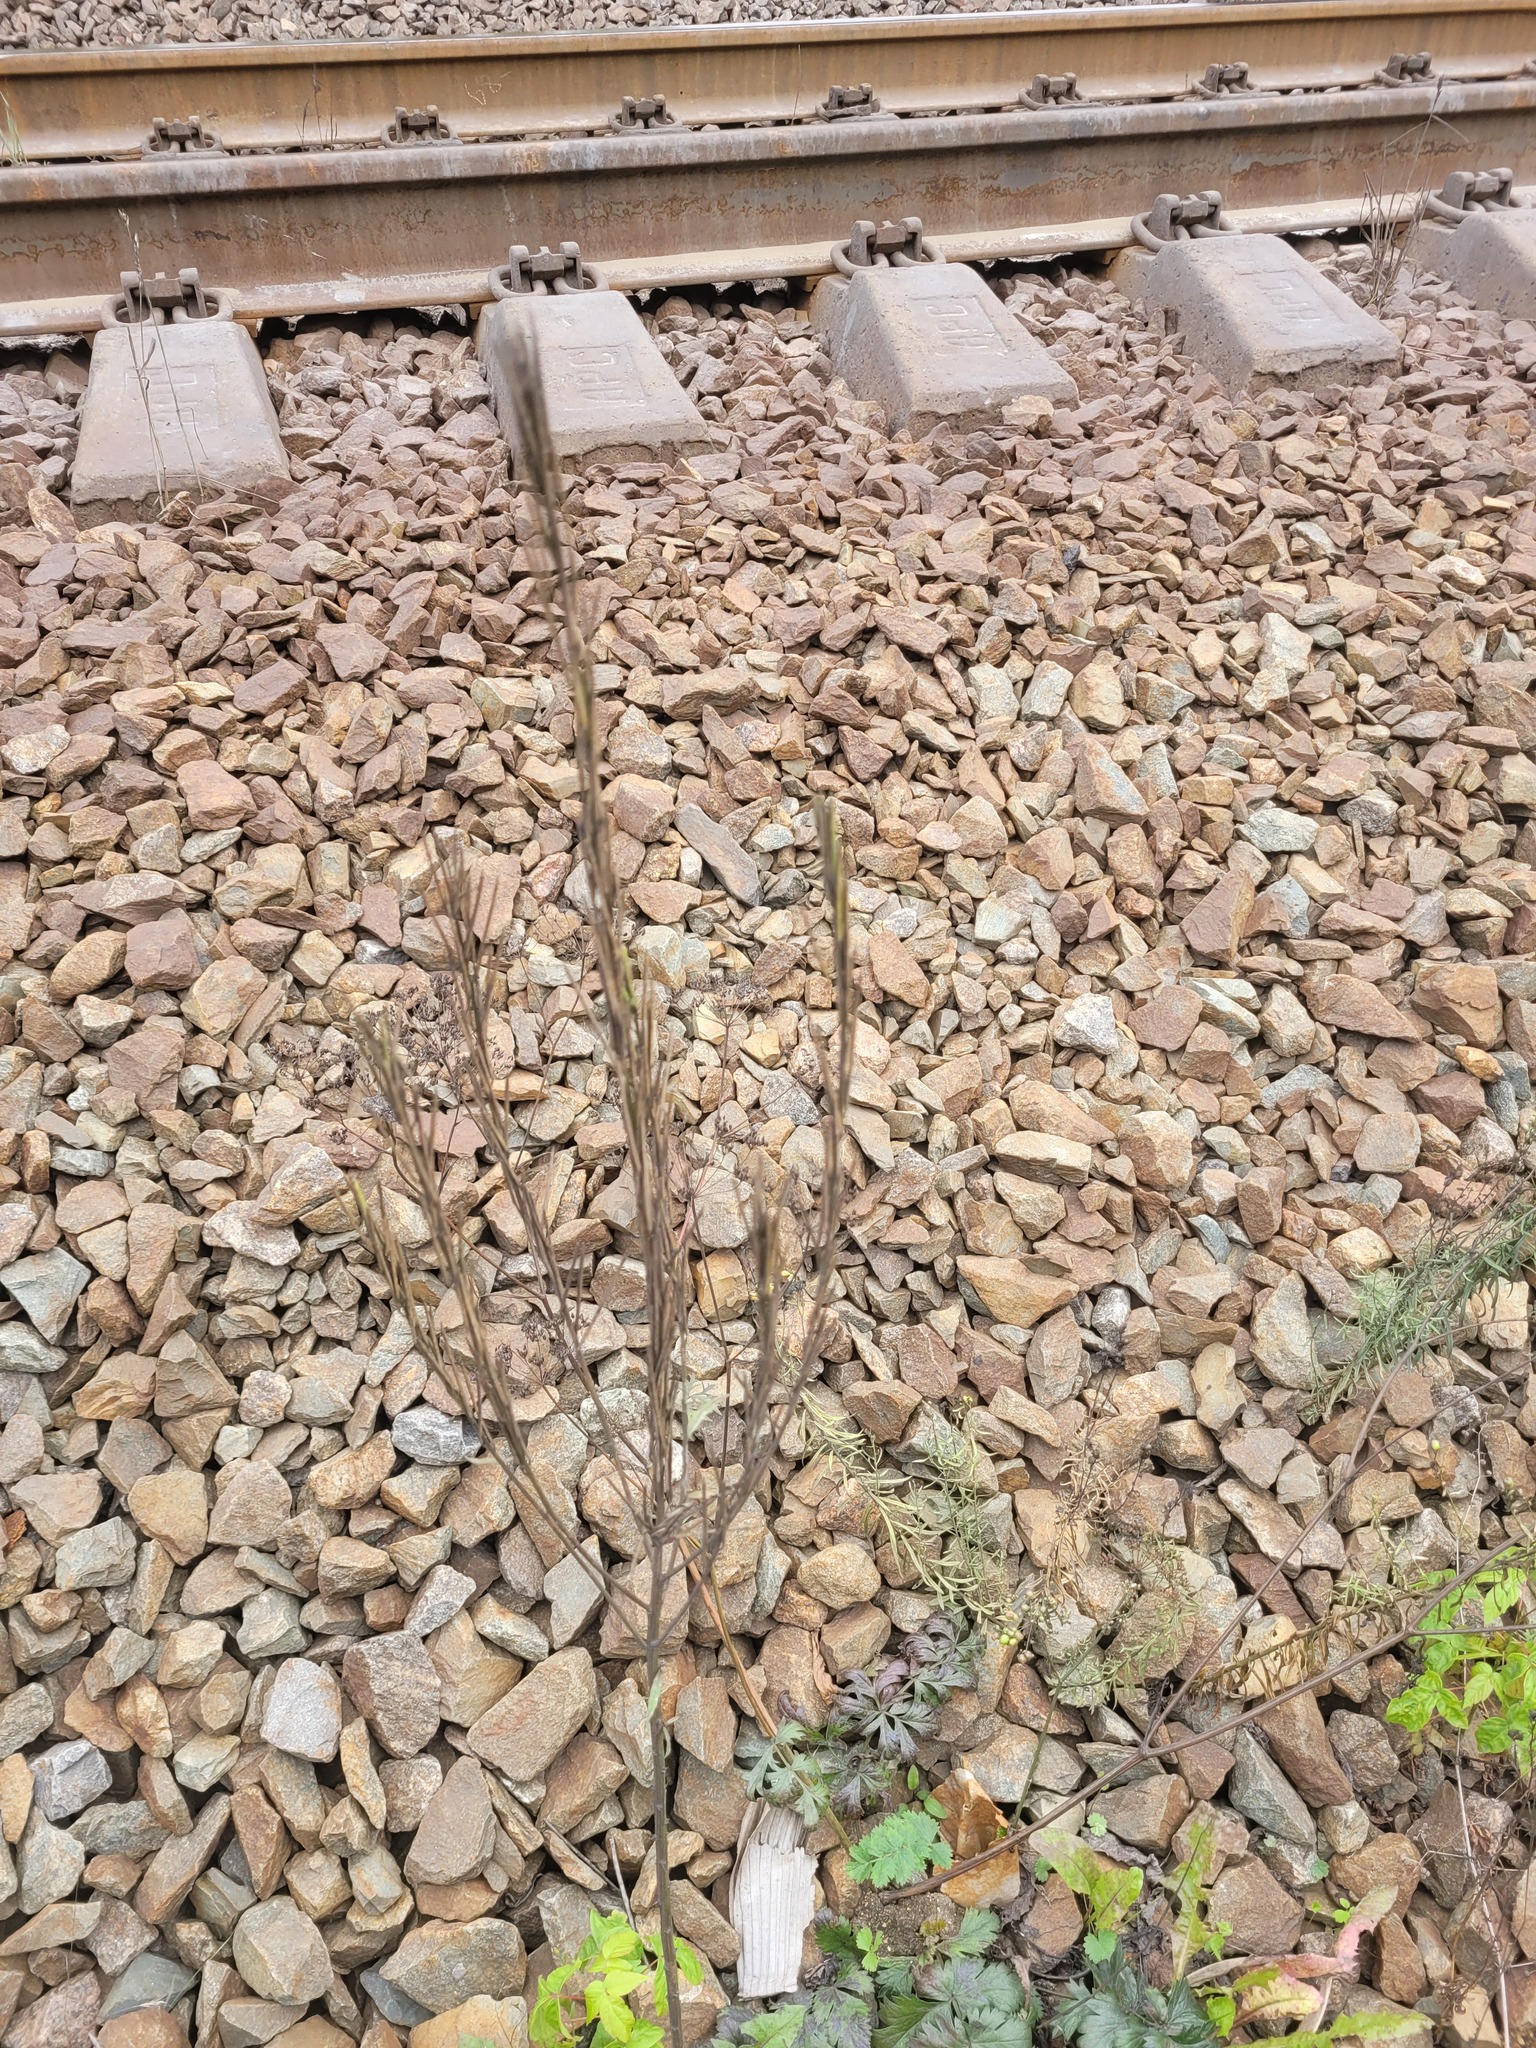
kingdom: Plantae
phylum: Tracheophyta
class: Magnoliopsida
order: Brassicales
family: Brassicaceae
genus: Erysimum
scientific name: Erysimum hieraciifolium
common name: European wallflower
